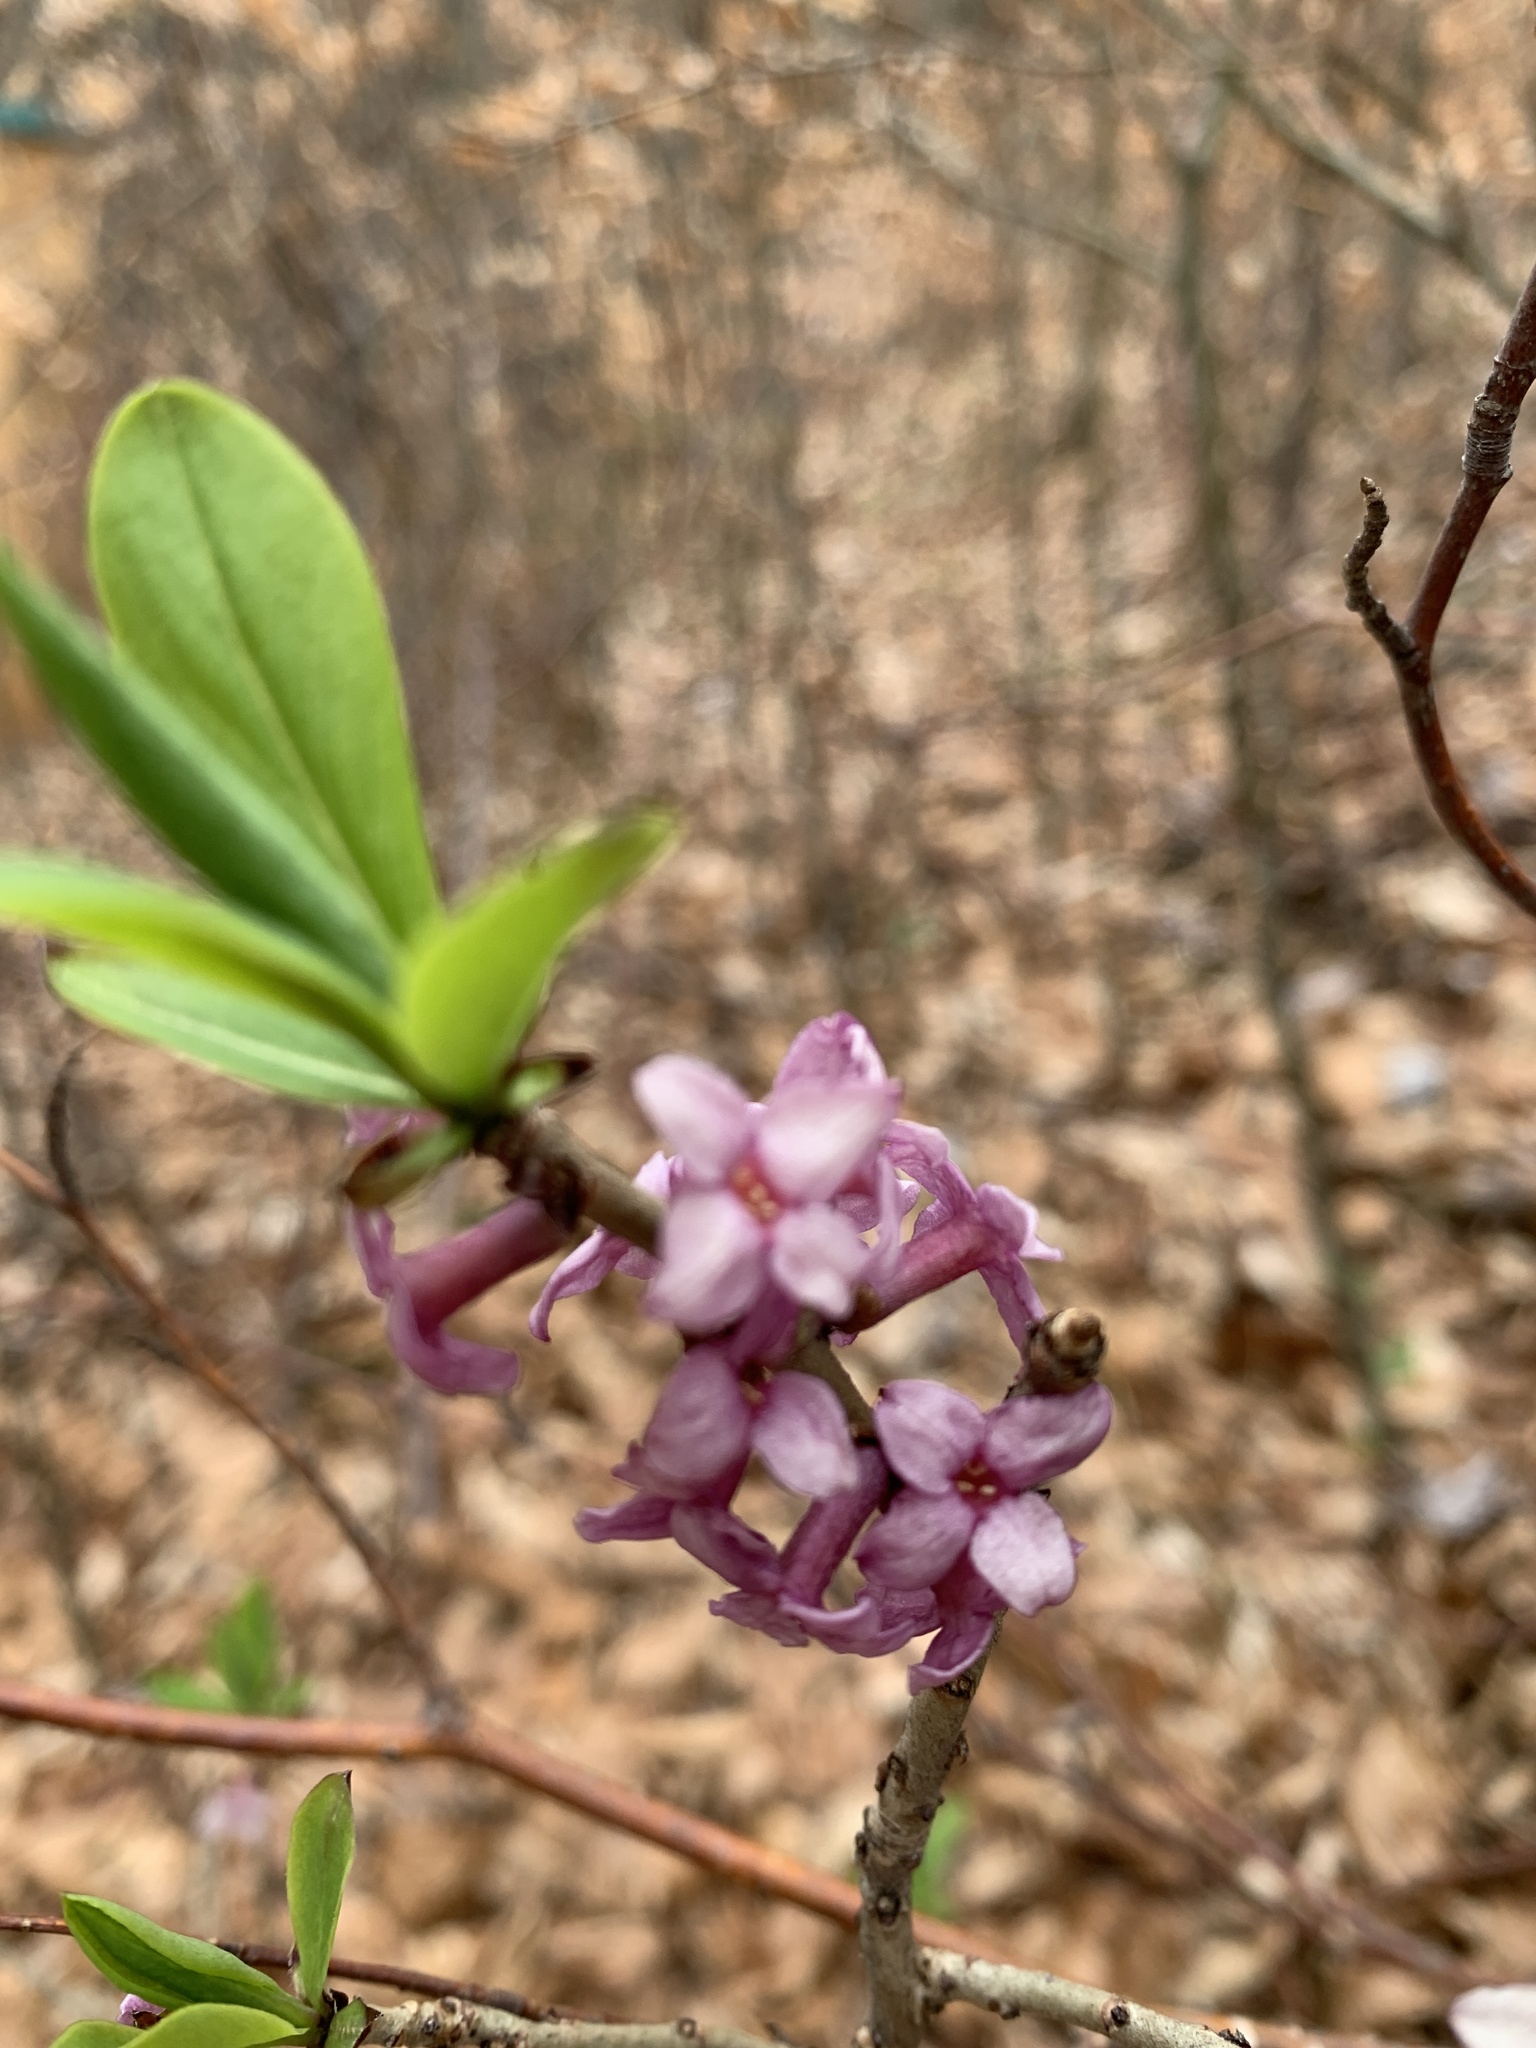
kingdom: Plantae
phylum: Tracheophyta
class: Magnoliopsida
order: Malvales
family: Thymelaeaceae
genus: Daphne
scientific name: Daphne mezereum
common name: Mezereon
